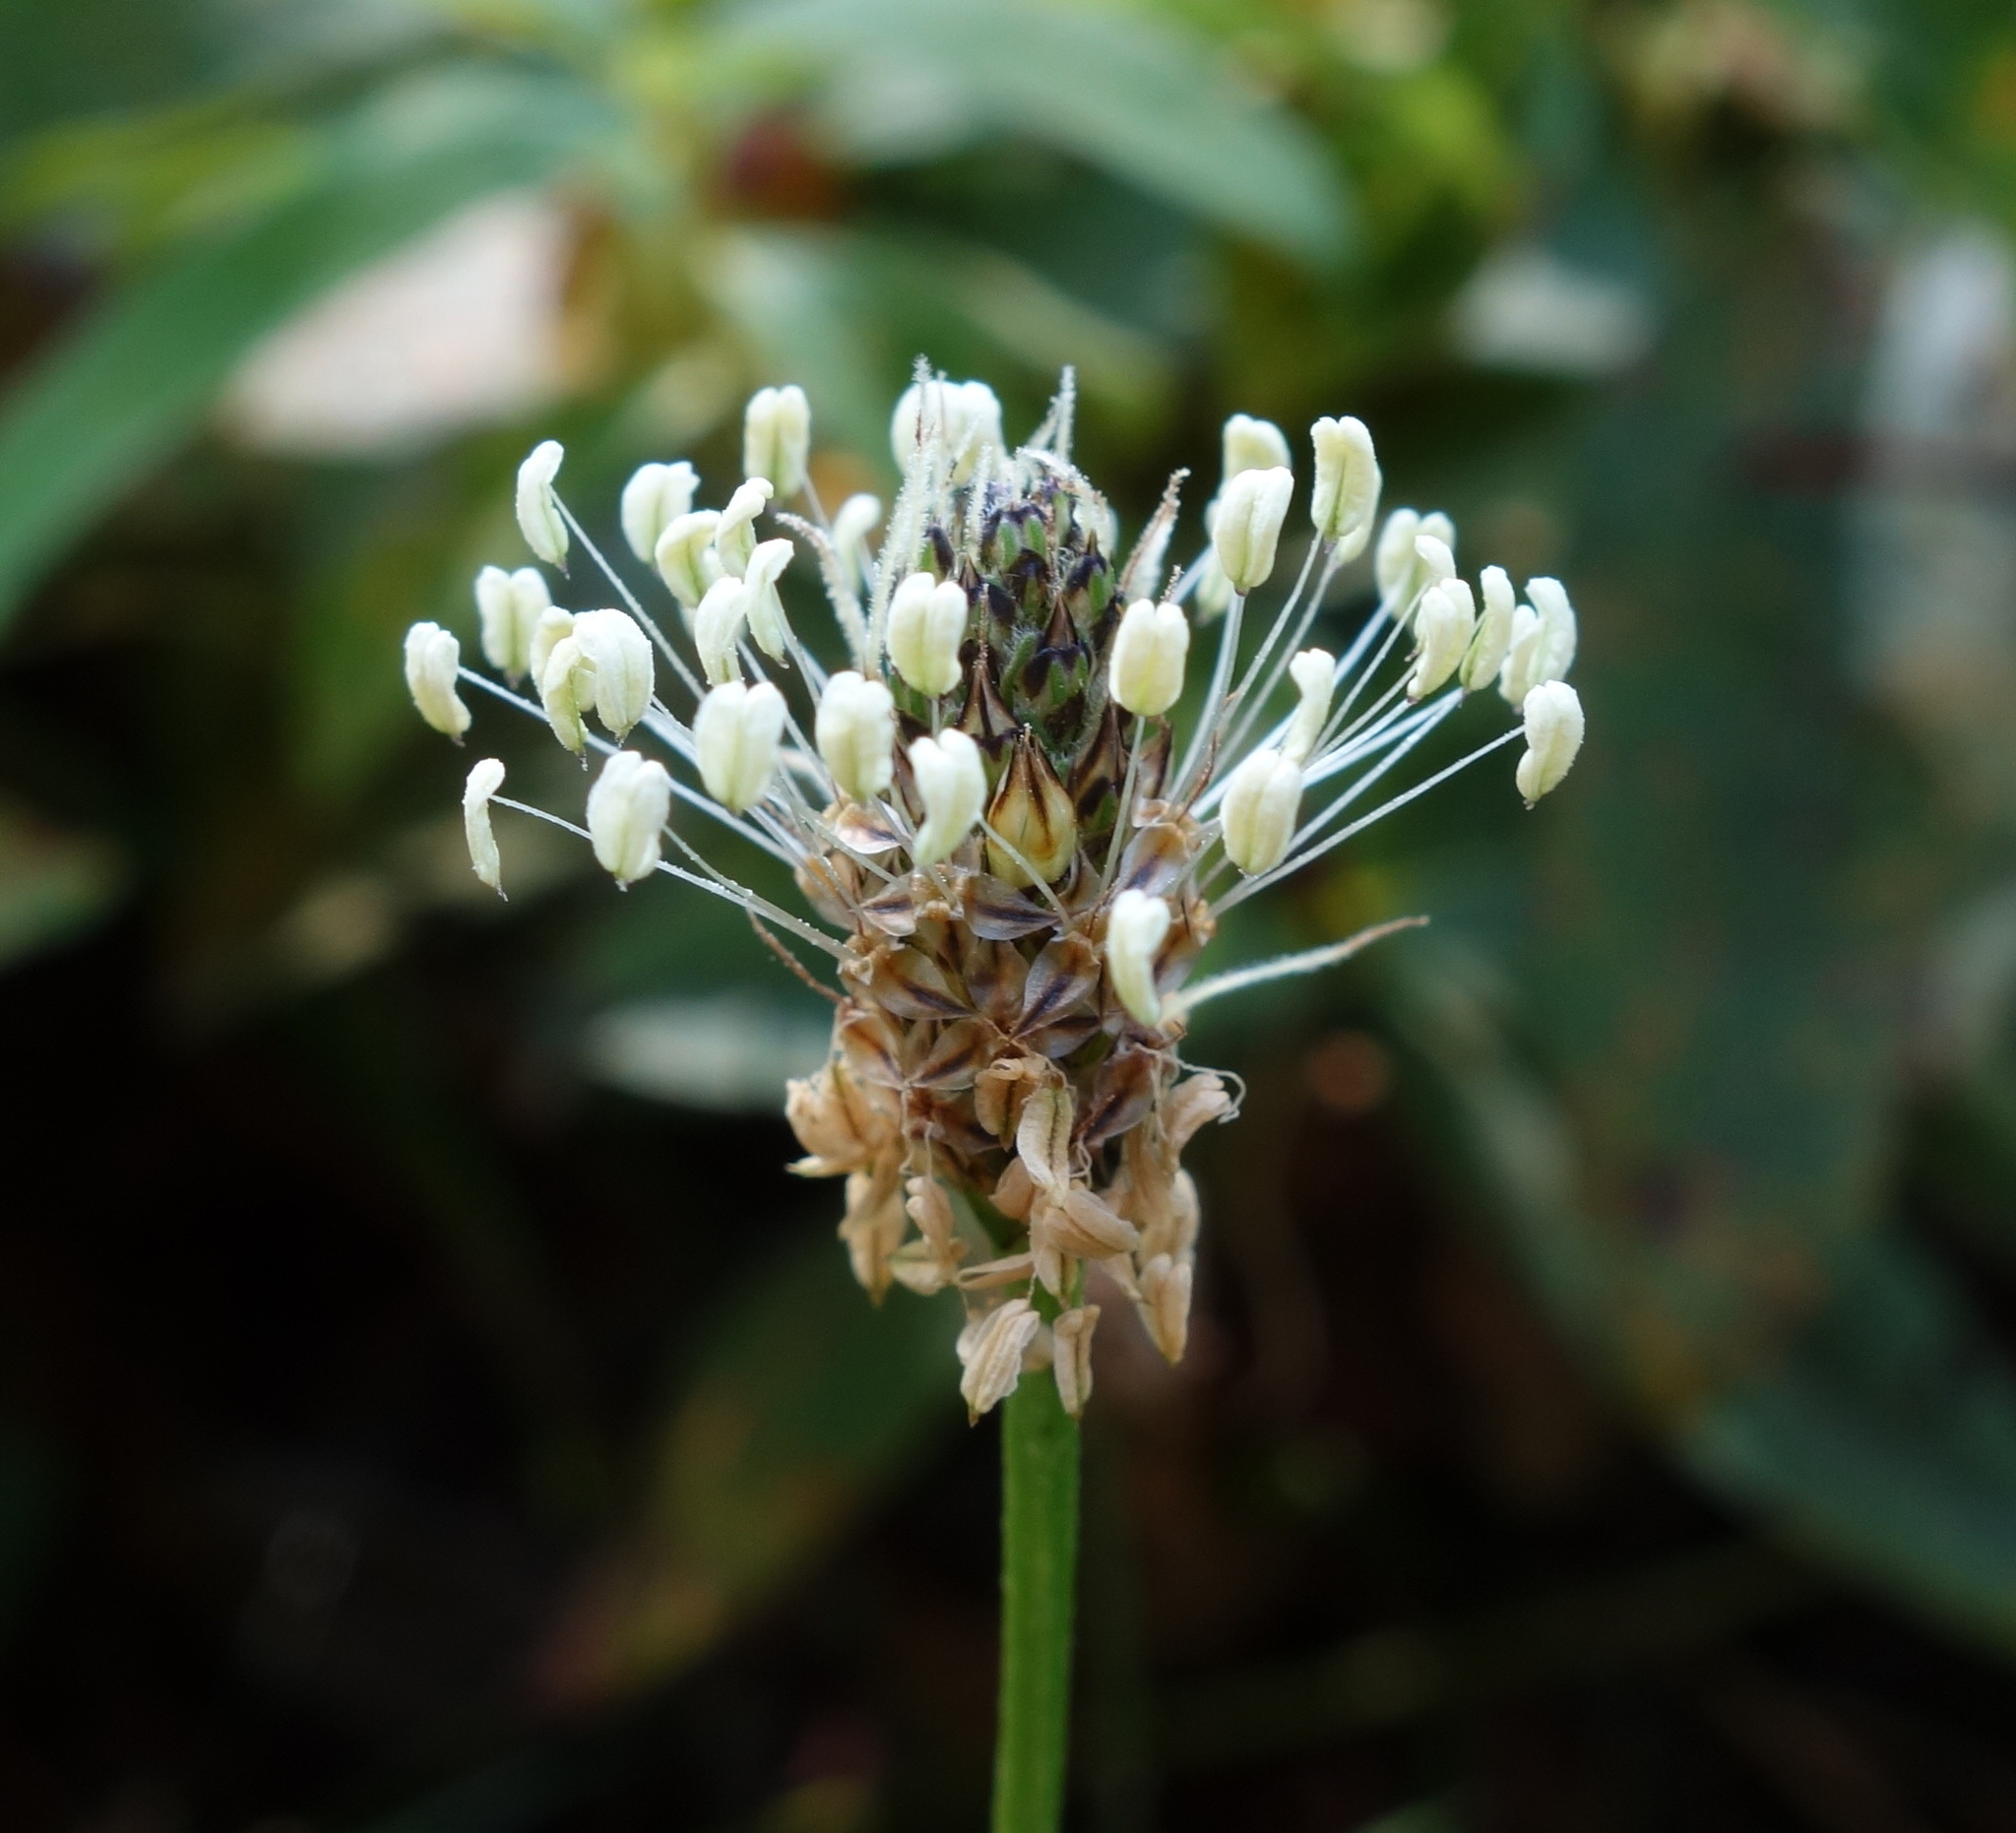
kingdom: Plantae
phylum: Tracheophyta
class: Magnoliopsida
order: Lamiales
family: Plantaginaceae
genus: Plantago
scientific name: Plantago lanceolata
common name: Ribwort plantain
